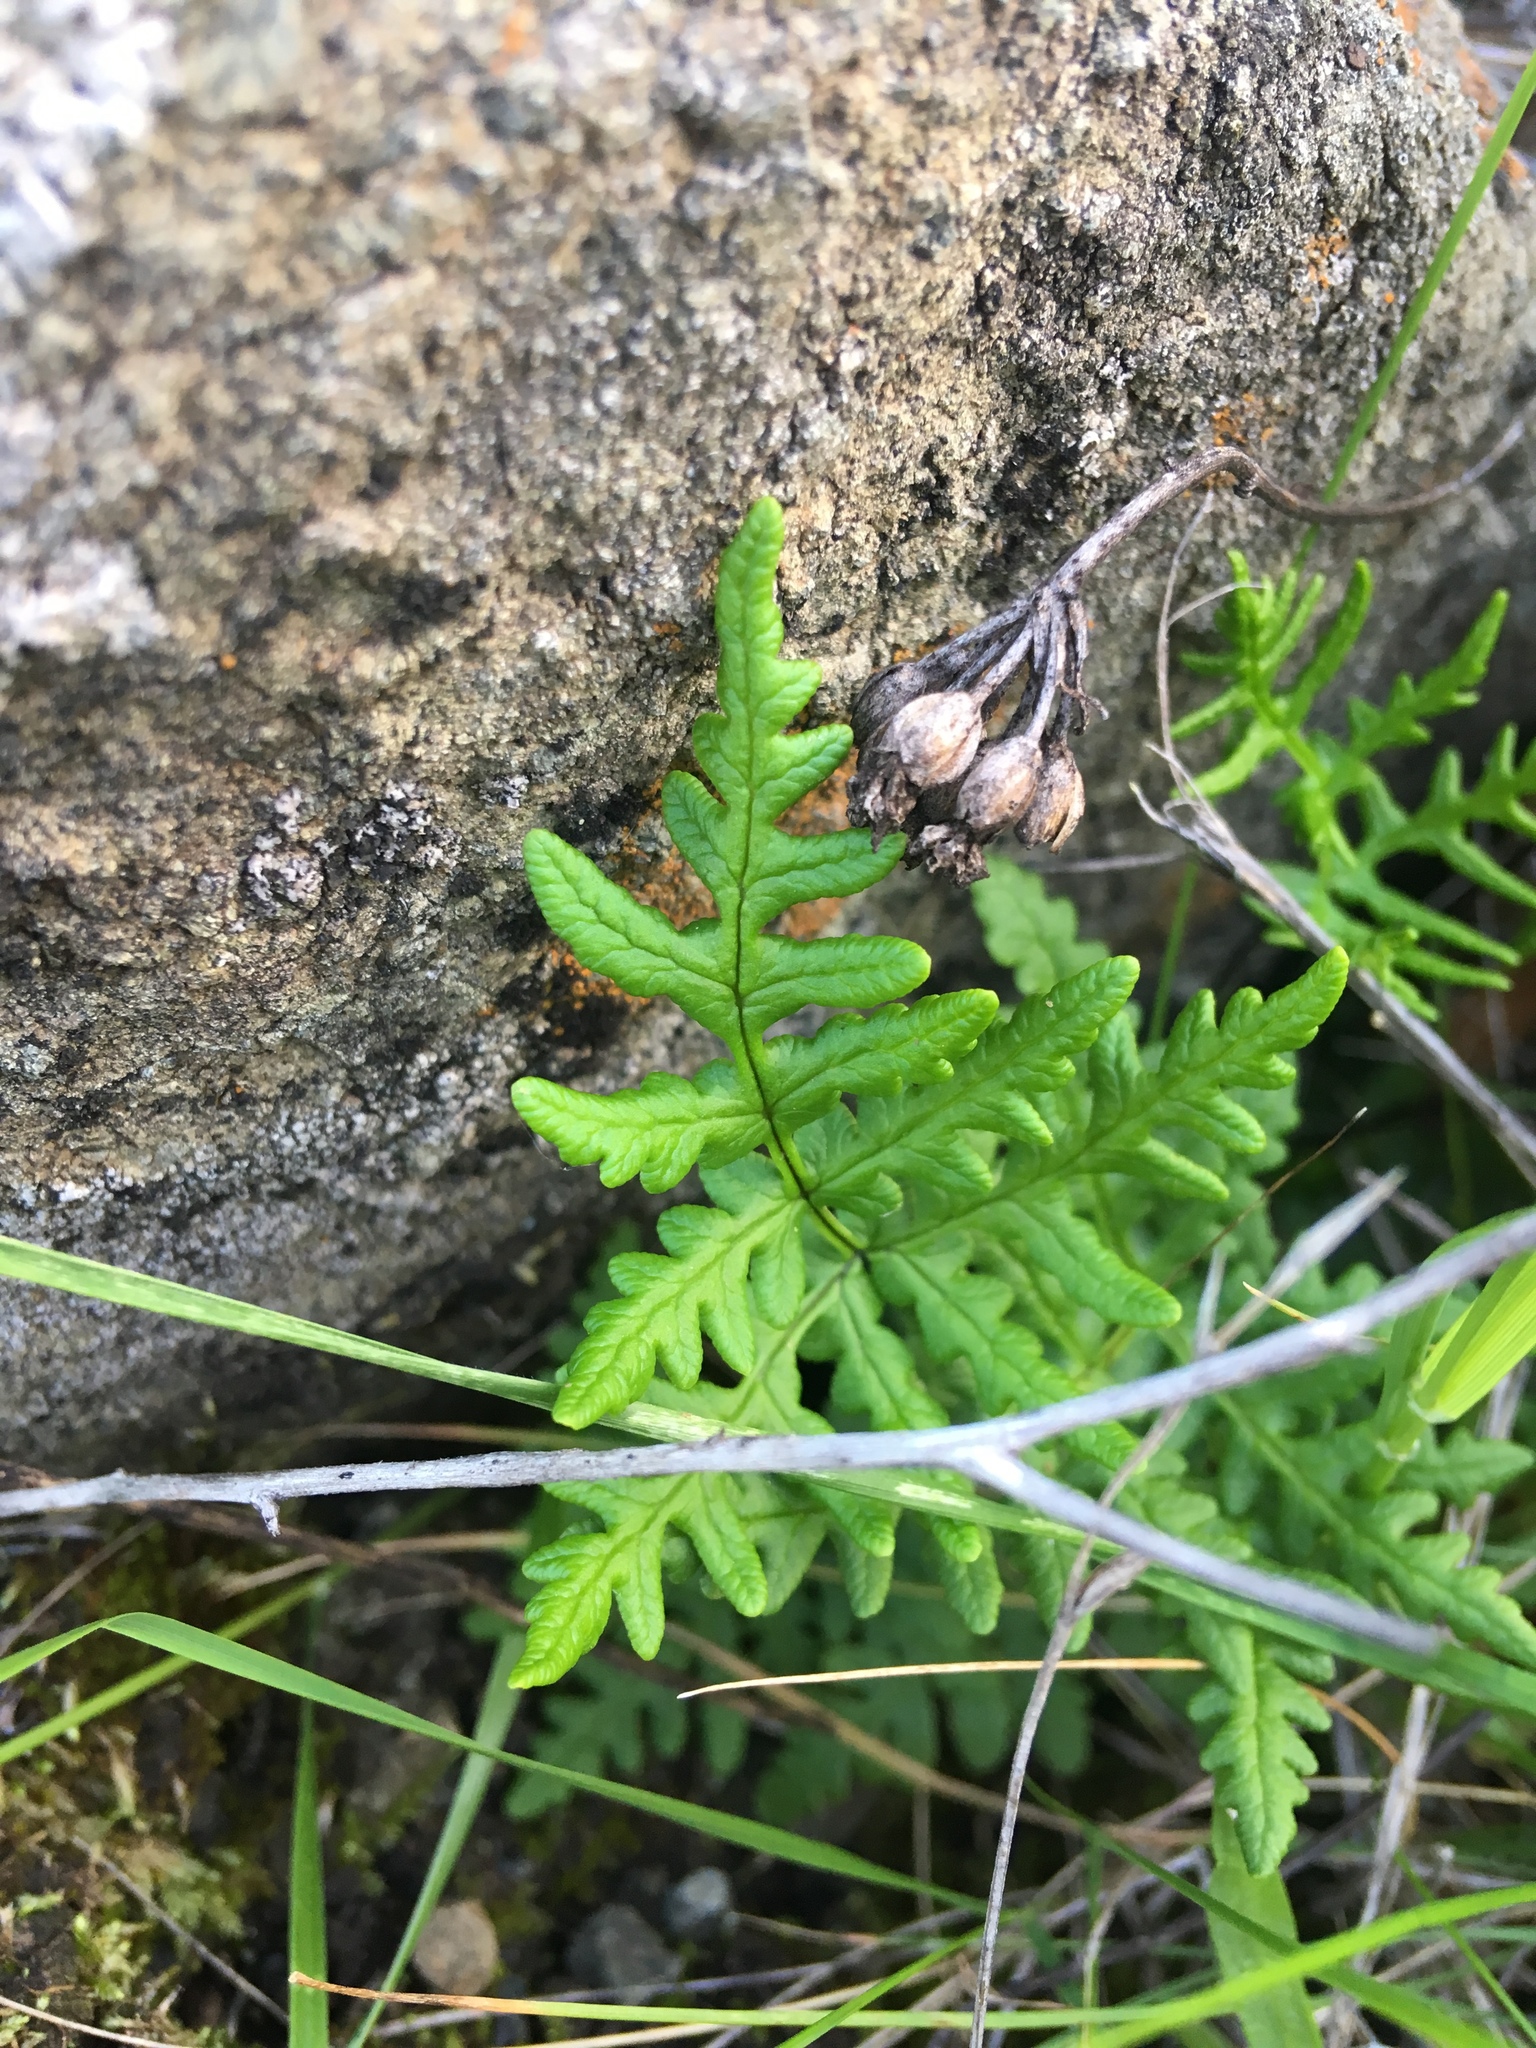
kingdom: Plantae
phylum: Tracheophyta
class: Polypodiopsida
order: Polypodiales
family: Pteridaceae
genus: Pentagramma
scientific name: Pentagramma triangularis
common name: Gold fern
